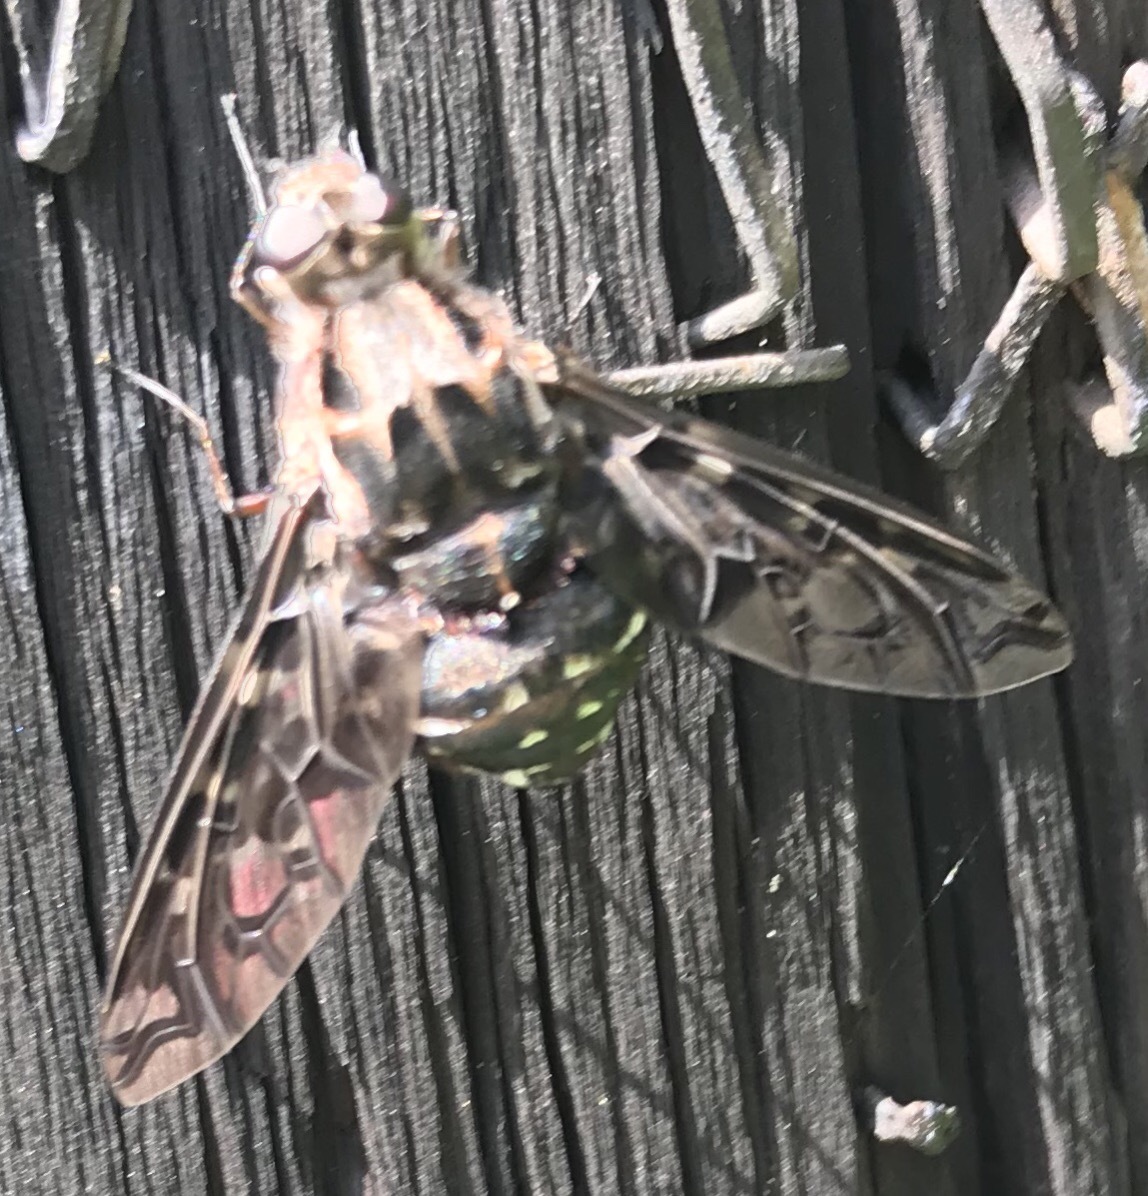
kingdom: Animalia
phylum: Arthropoda
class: Insecta
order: Diptera
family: Bombyliidae
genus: Xenox
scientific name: Xenox tigrinus
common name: Tiger bee fly
